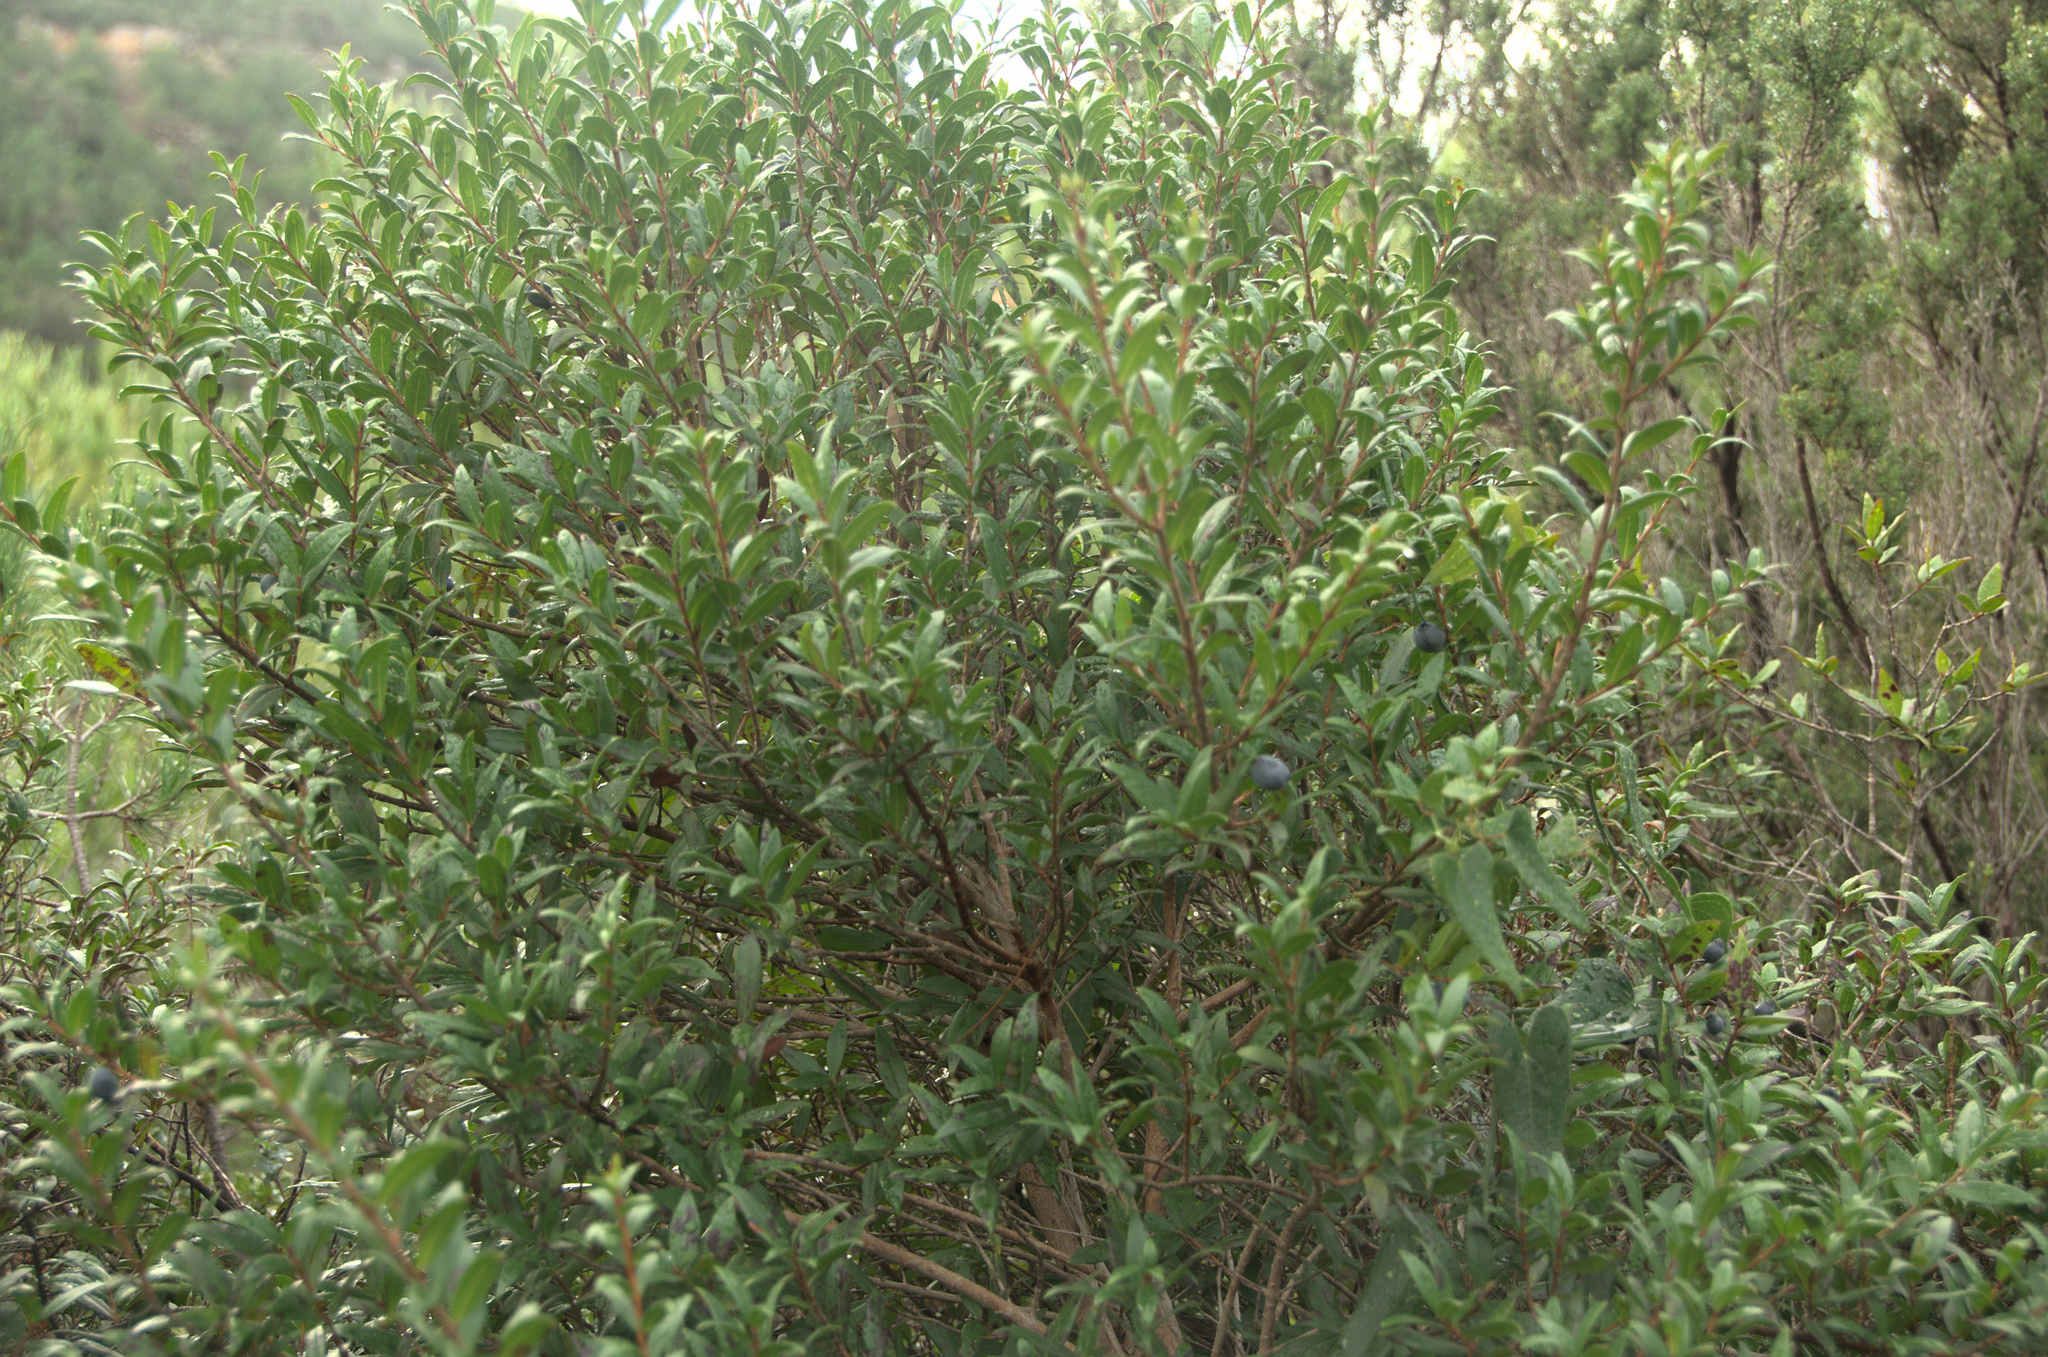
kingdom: Plantae
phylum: Tracheophyta
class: Magnoliopsida
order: Myrtales
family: Myrtaceae
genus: Myrtus
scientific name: Myrtus communis
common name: Myrtle
